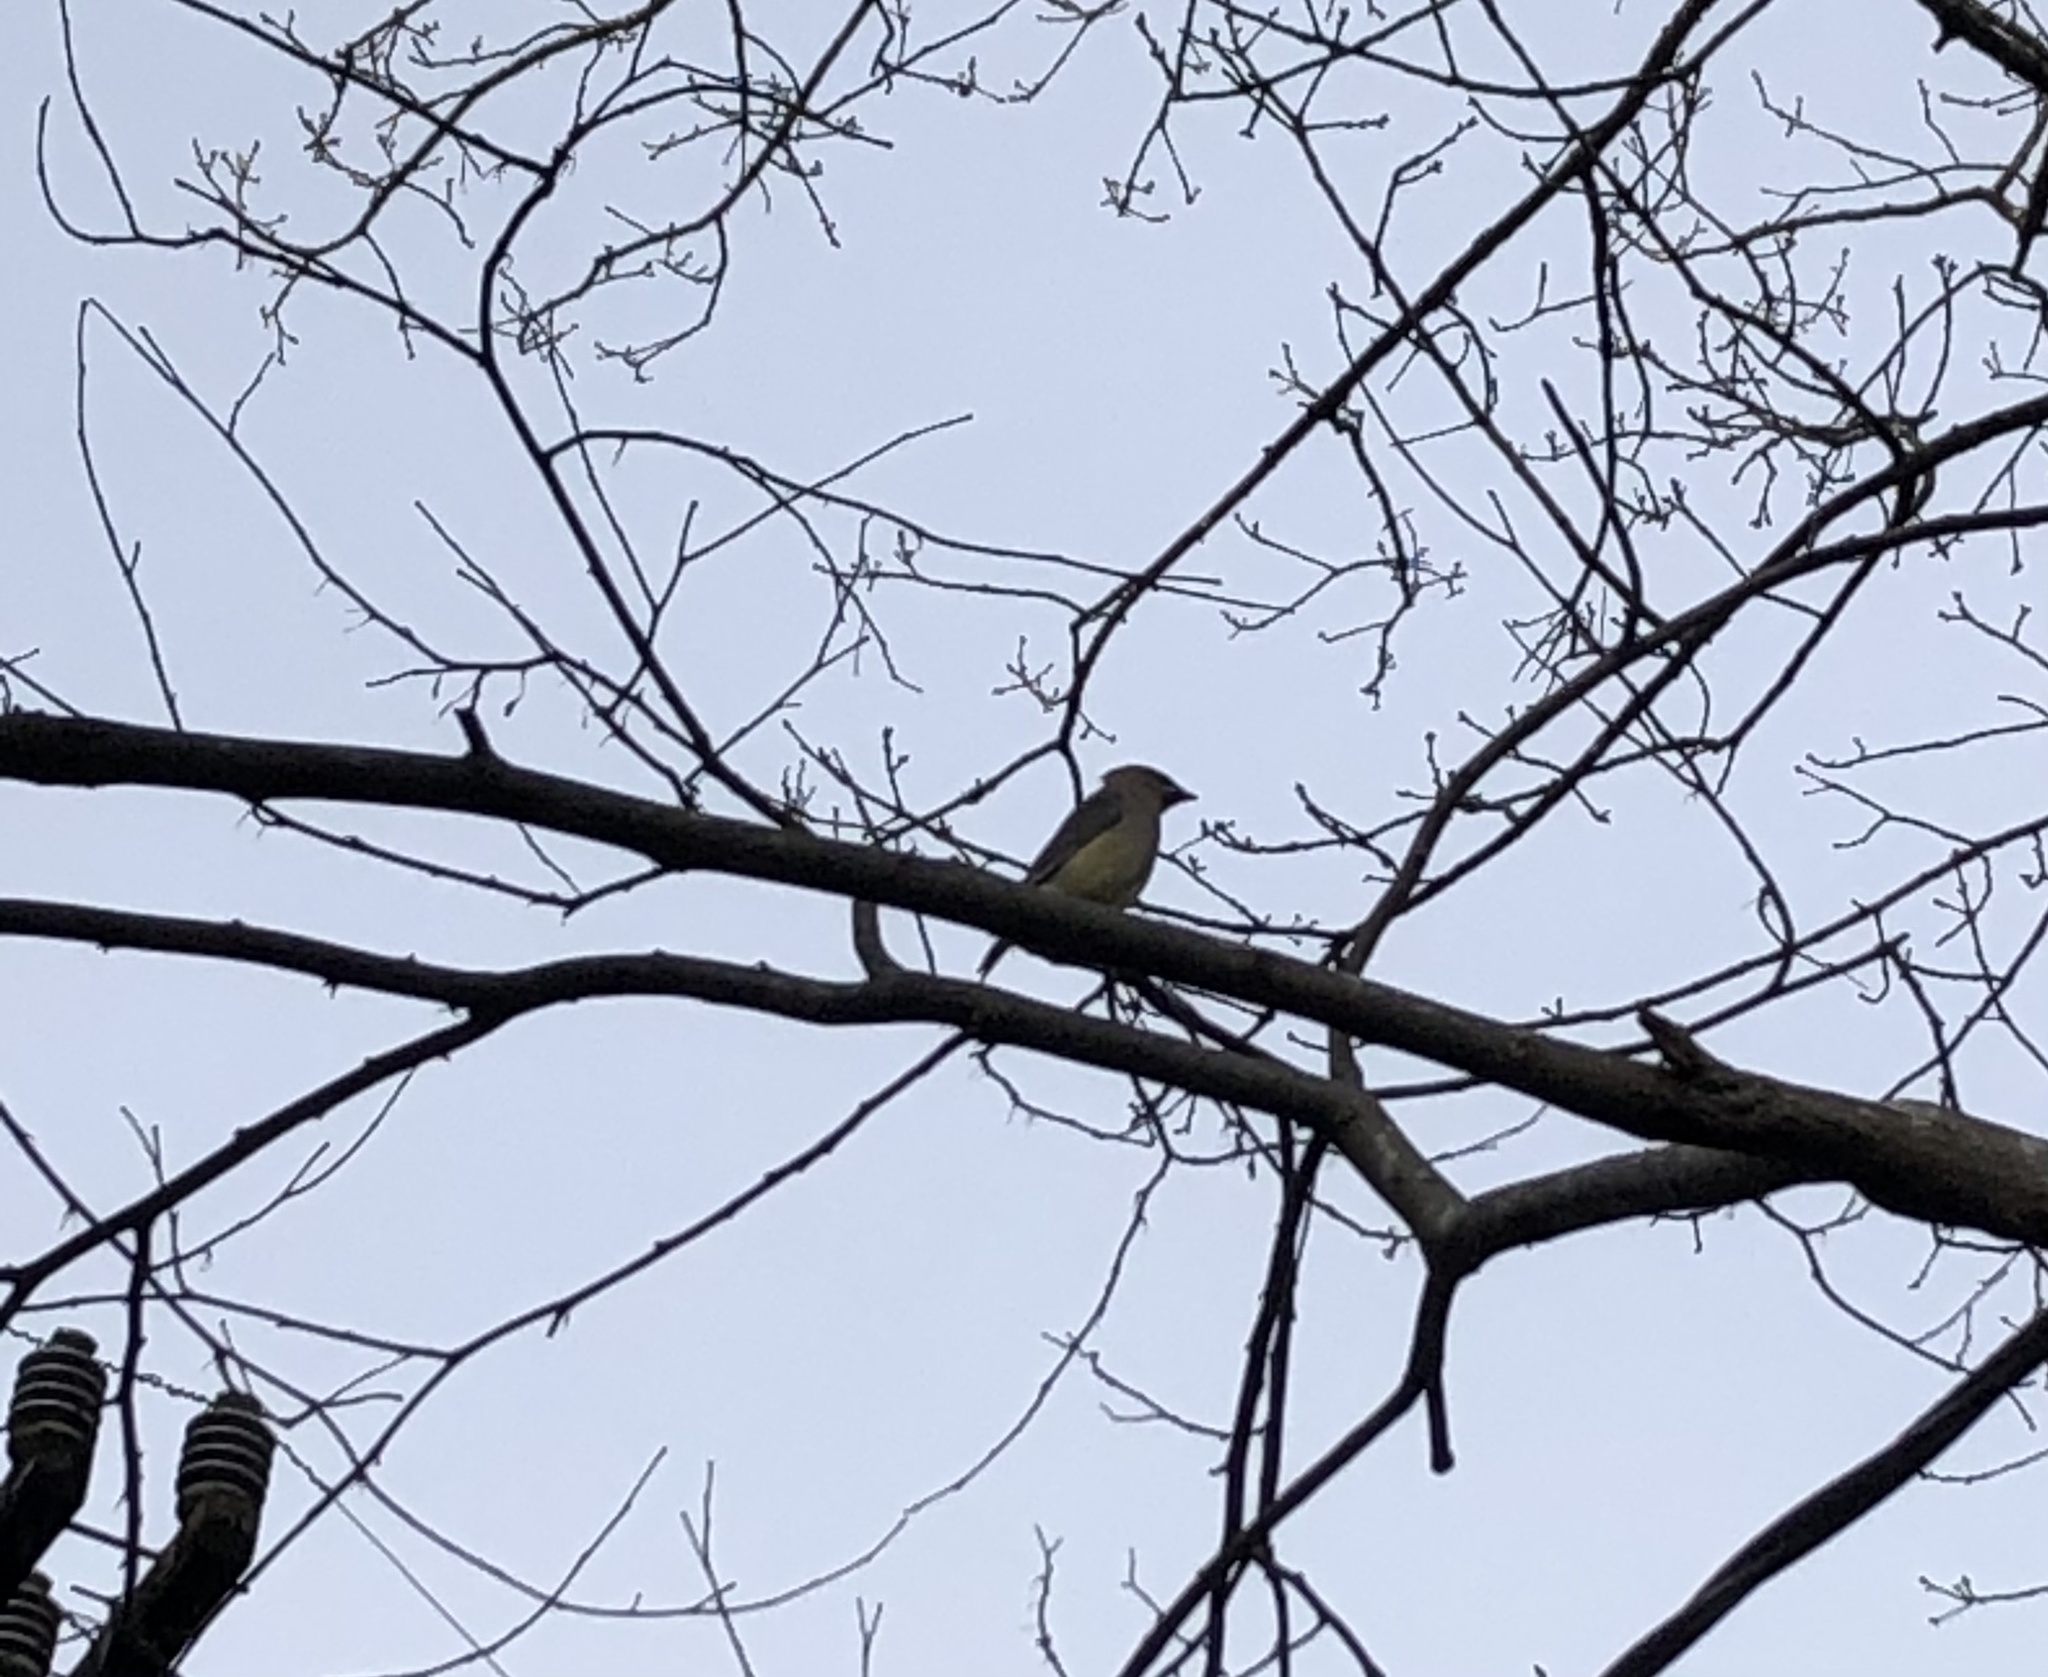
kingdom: Animalia
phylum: Chordata
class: Aves
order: Passeriformes
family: Bombycillidae
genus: Bombycilla
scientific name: Bombycilla cedrorum
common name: Cedar waxwing
